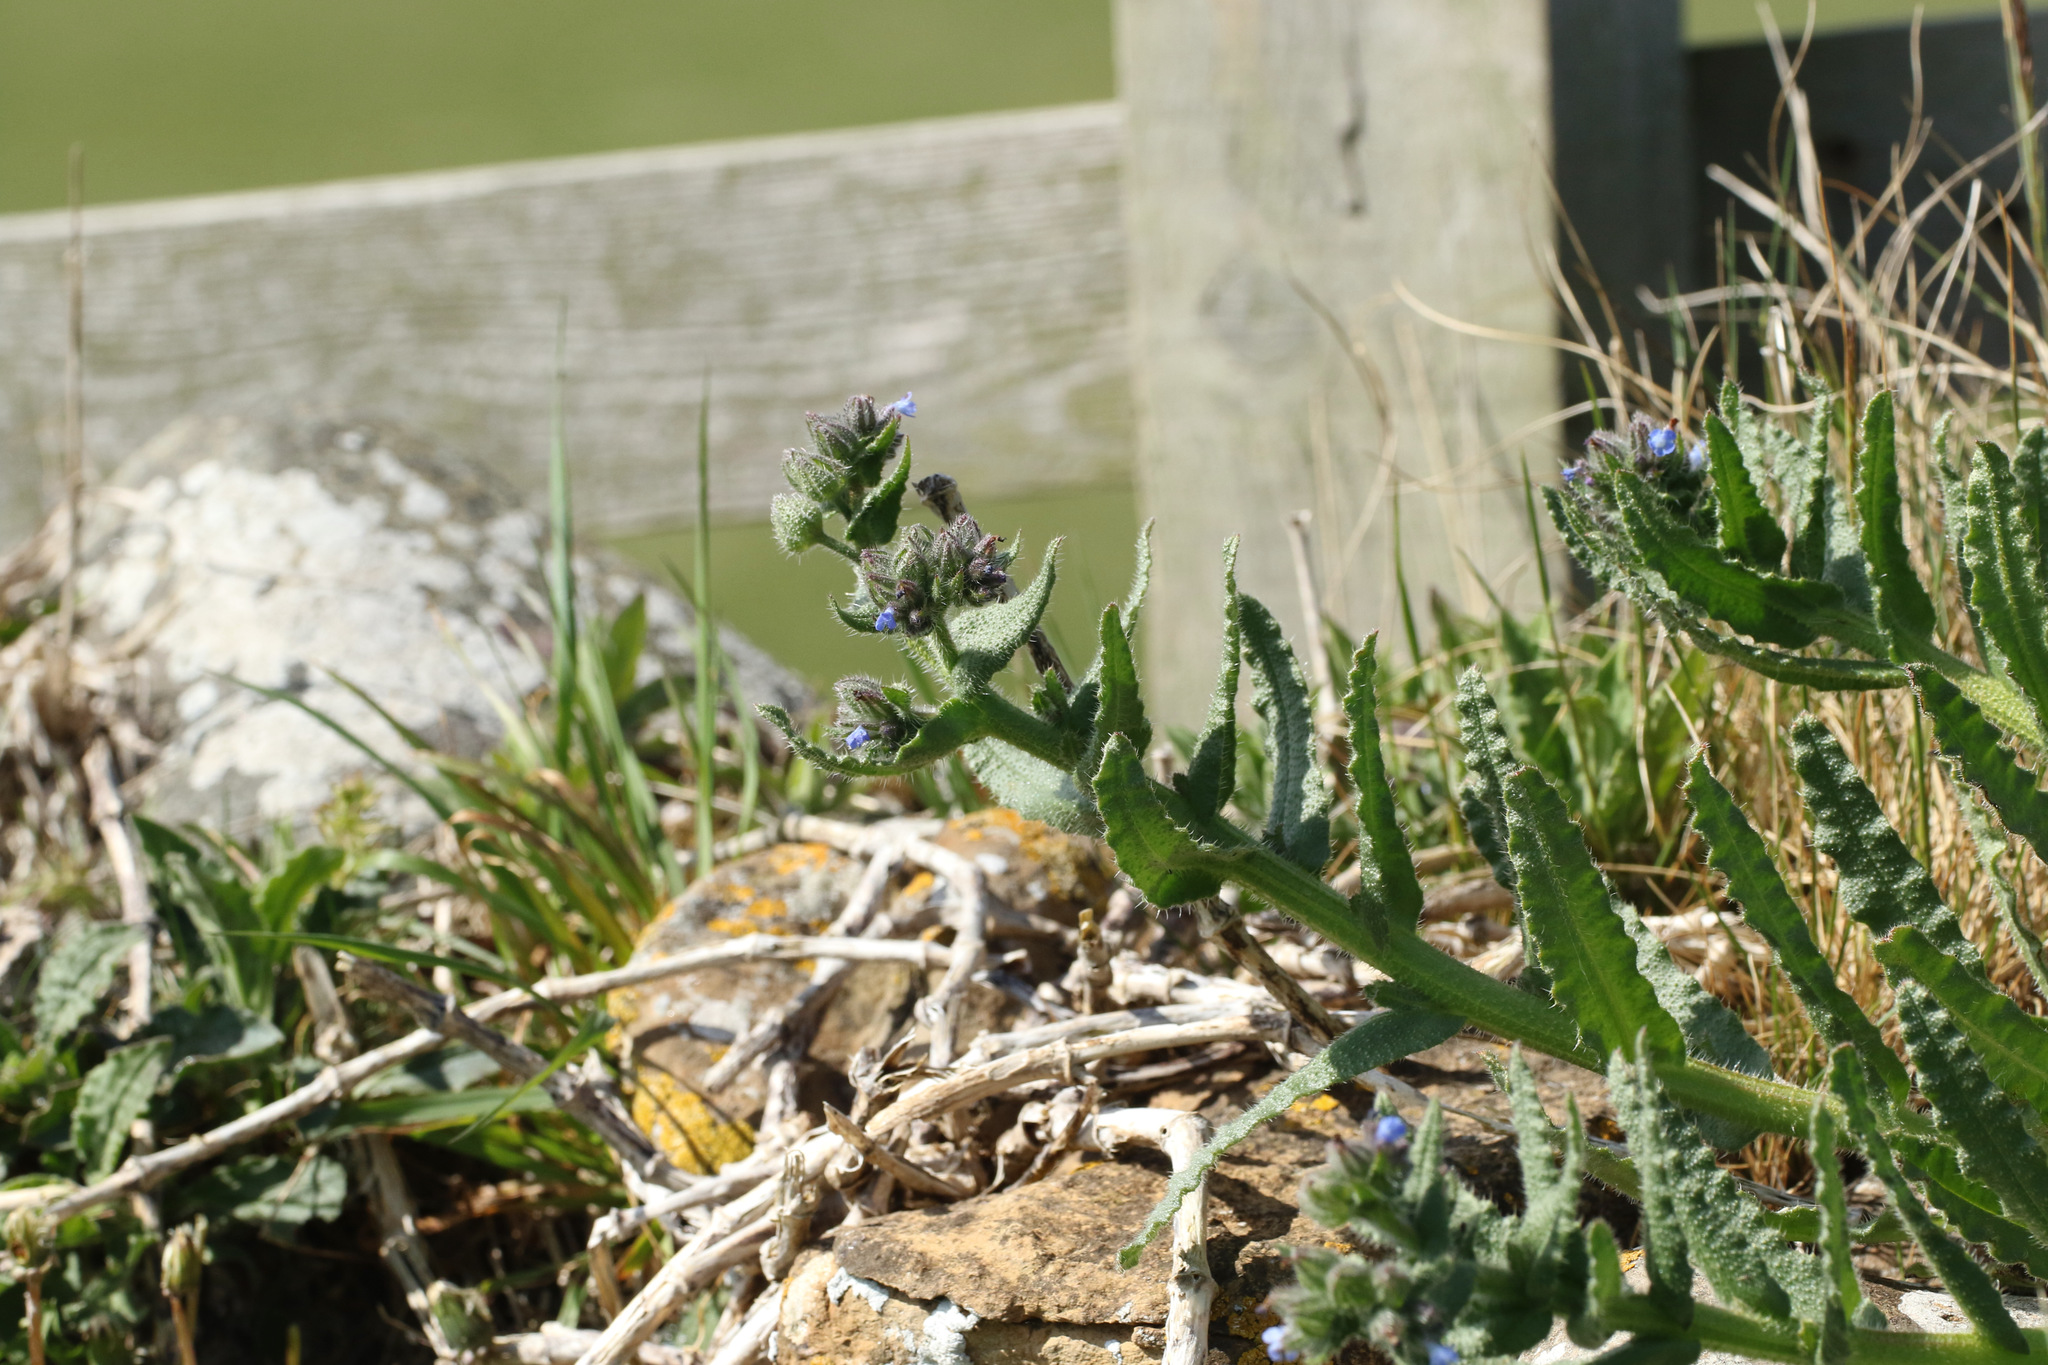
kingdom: Plantae
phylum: Tracheophyta
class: Magnoliopsida
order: Boraginales
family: Boraginaceae
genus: Lycopsis
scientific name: Lycopsis arvensis
